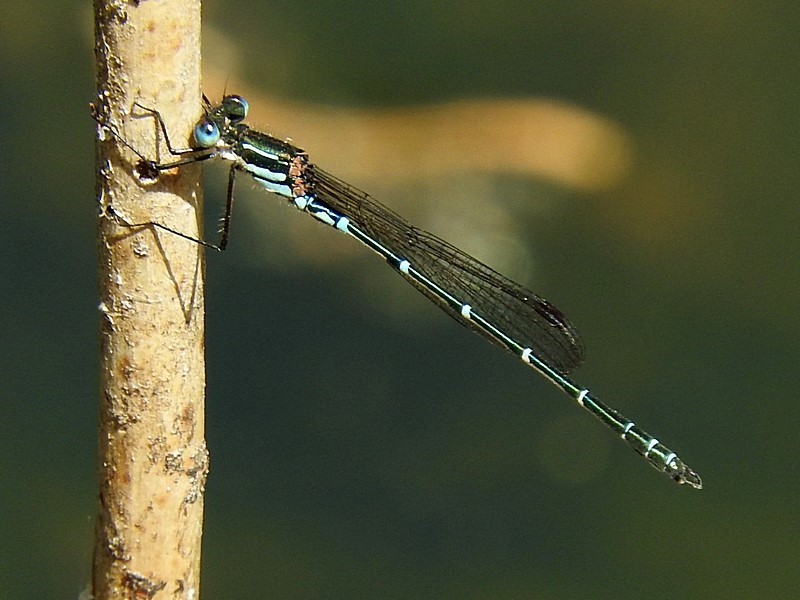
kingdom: Animalia
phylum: Arthropoda
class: Insecta
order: Odonata
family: Lestidae
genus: Austrolestes
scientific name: Austrolestes psyche
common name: Cup ringtail
